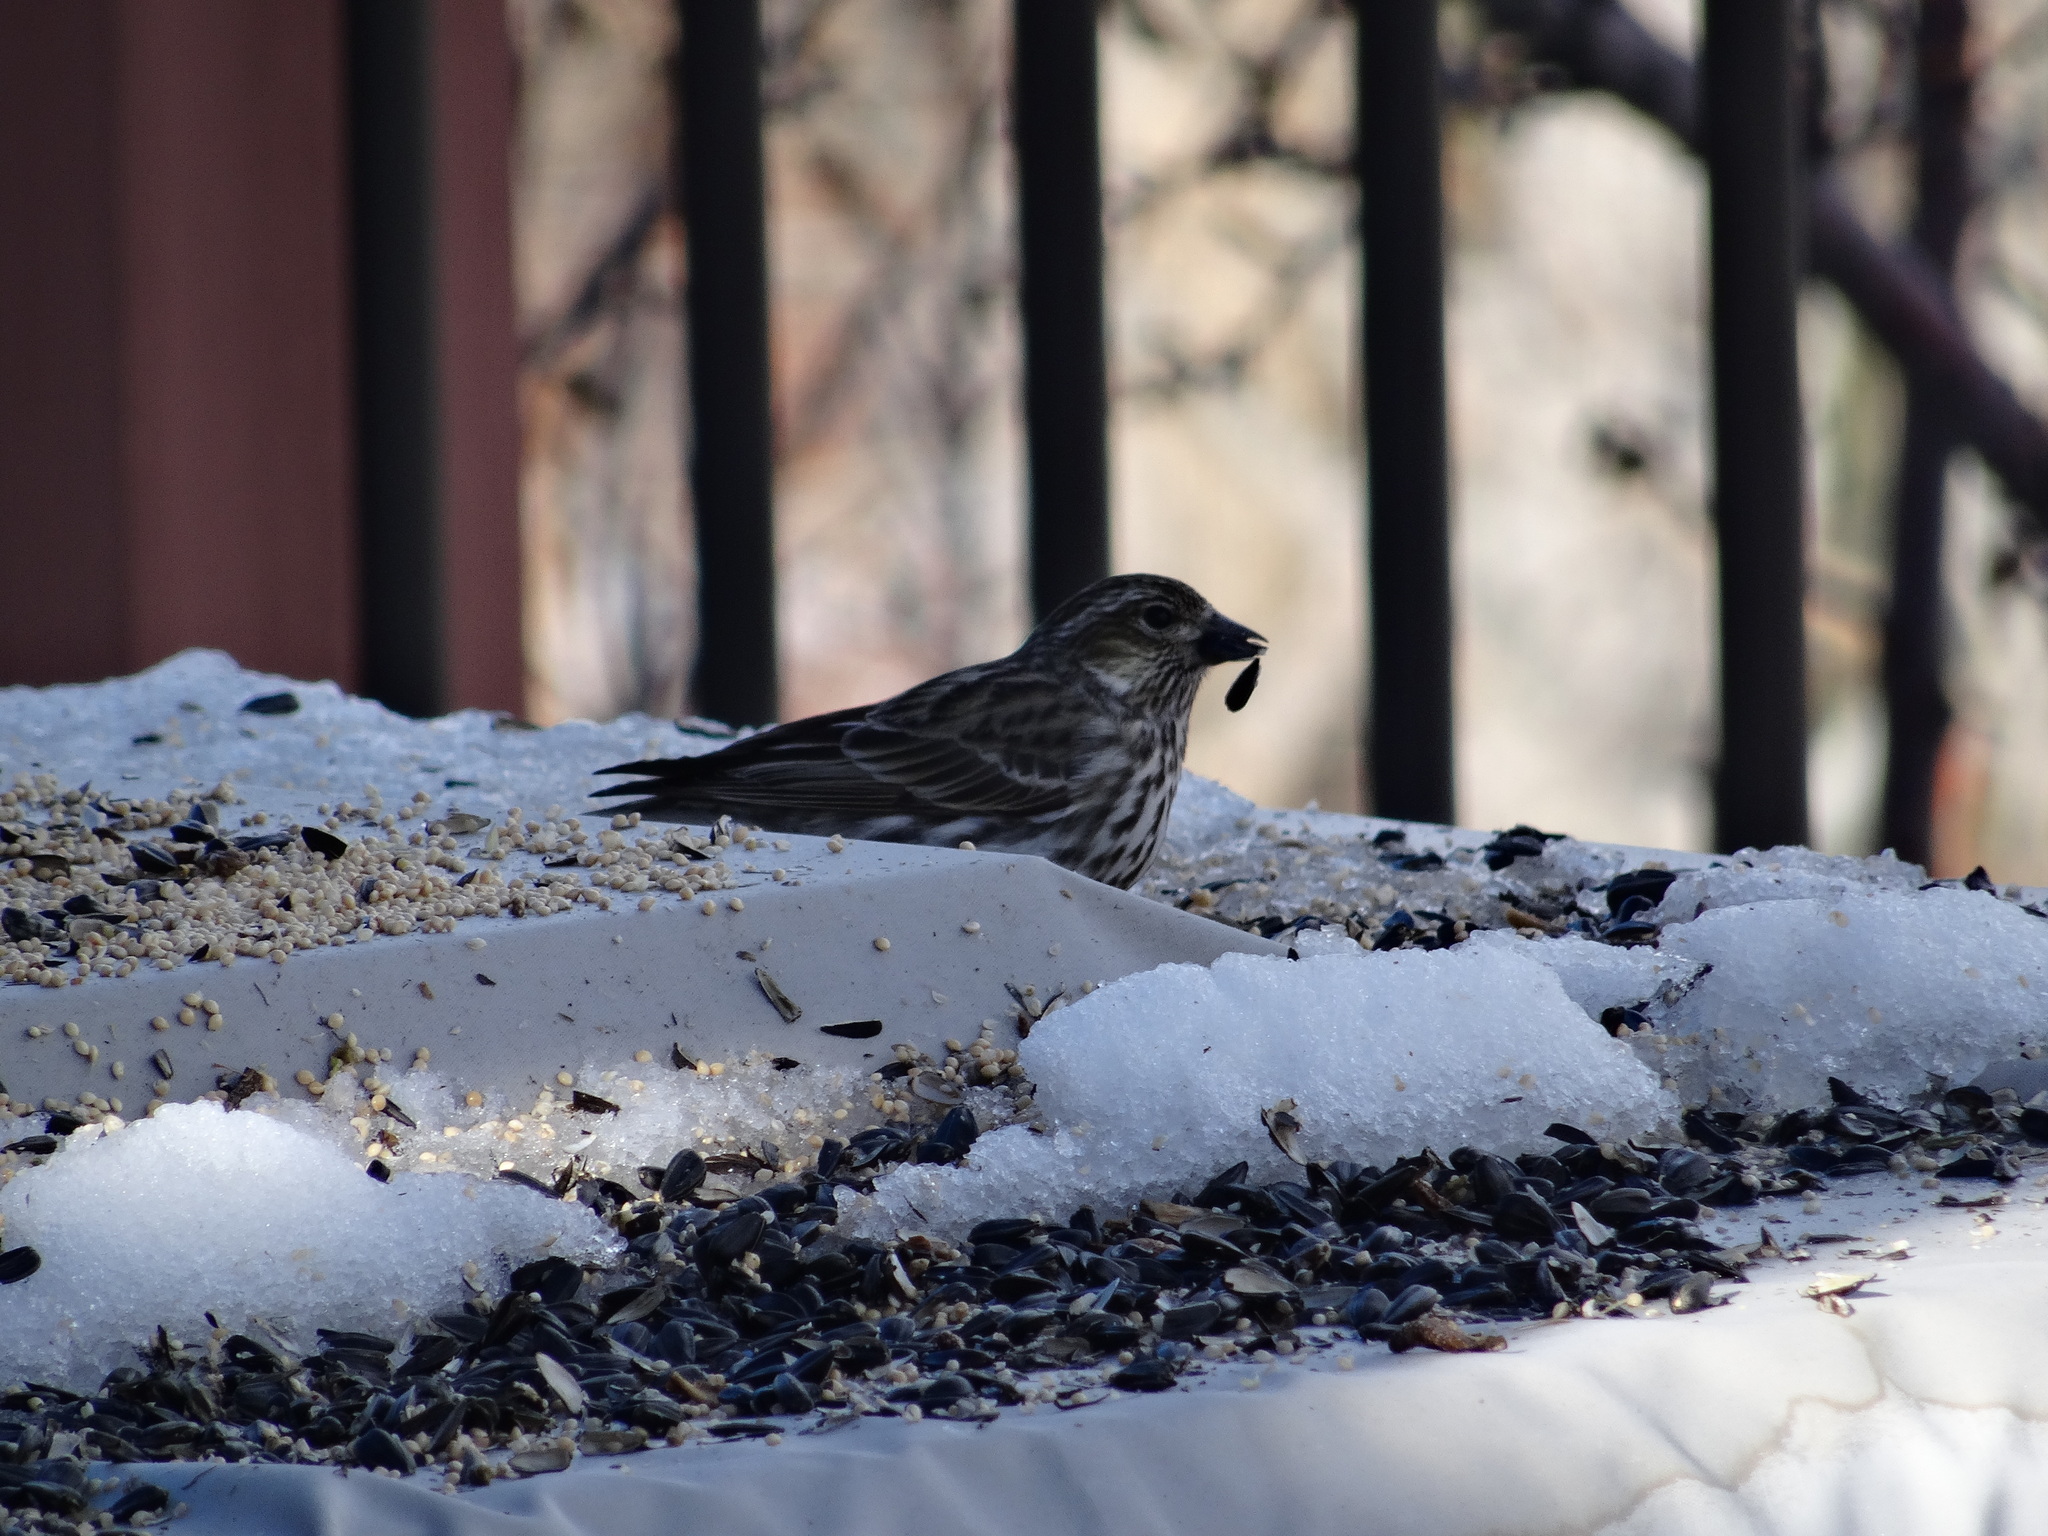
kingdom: Animalia
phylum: Chordata
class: Aves
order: Passeriformes
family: Fringillidae
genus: Haemorhous
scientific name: Haemorhous cassinii
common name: Cassin's finch
